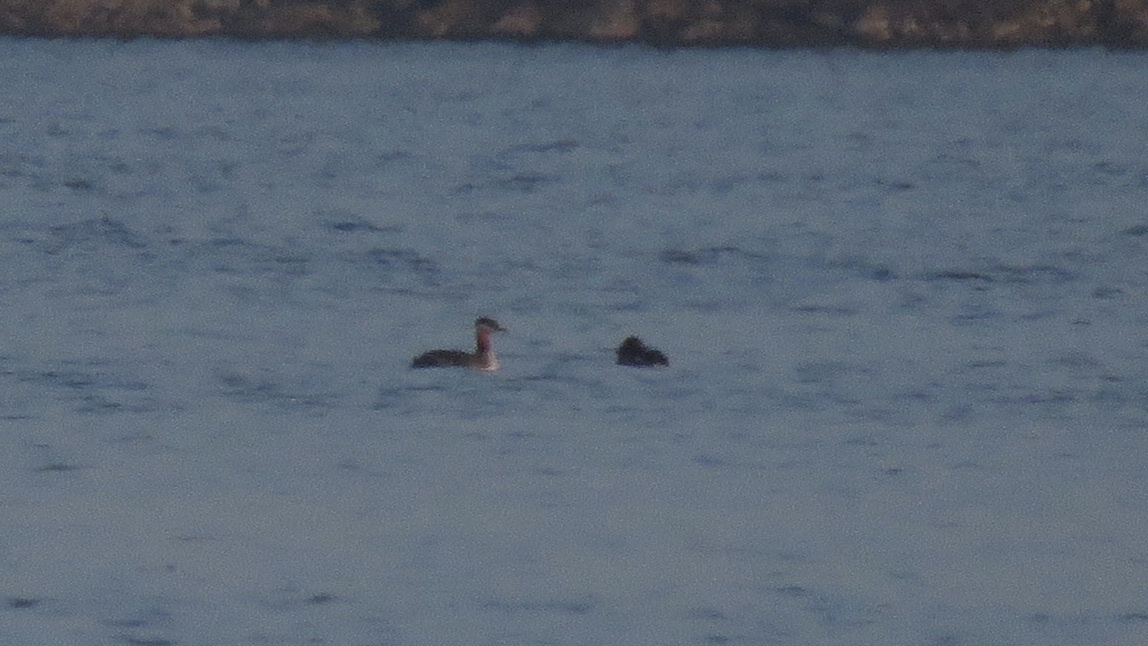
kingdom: Animalia
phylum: Chordata
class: Aves
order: Podicipediformes
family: Podicipedidae
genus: Podiceps
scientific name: Podiceps grisegena
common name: Red-necked grebe
